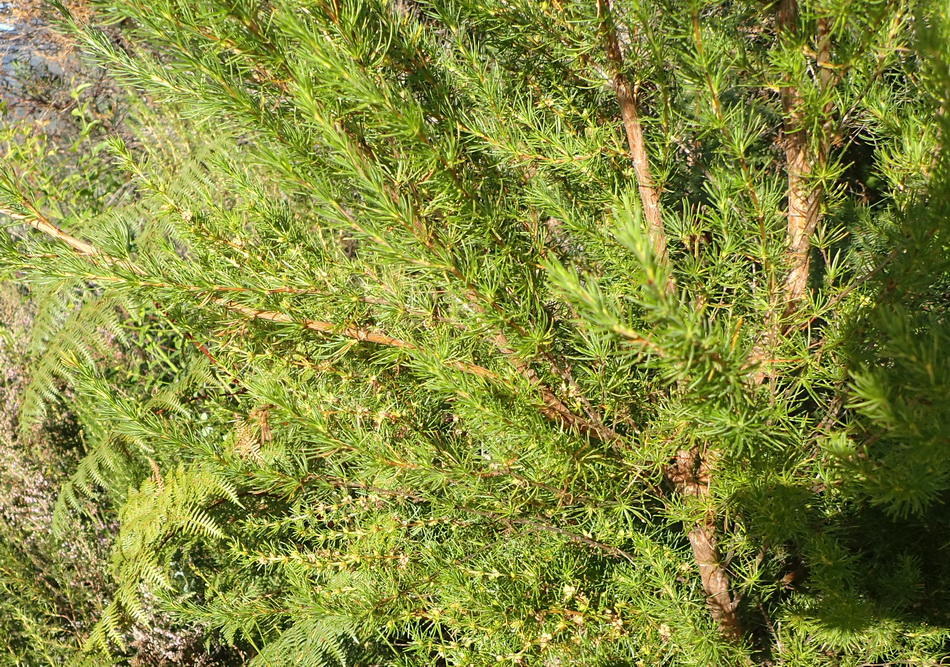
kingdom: Plantae
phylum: Tracheophyta
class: Magnoliopsida
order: Rosales
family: Rosaceae
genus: Cliffortia
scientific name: Cliffortia burchellii
